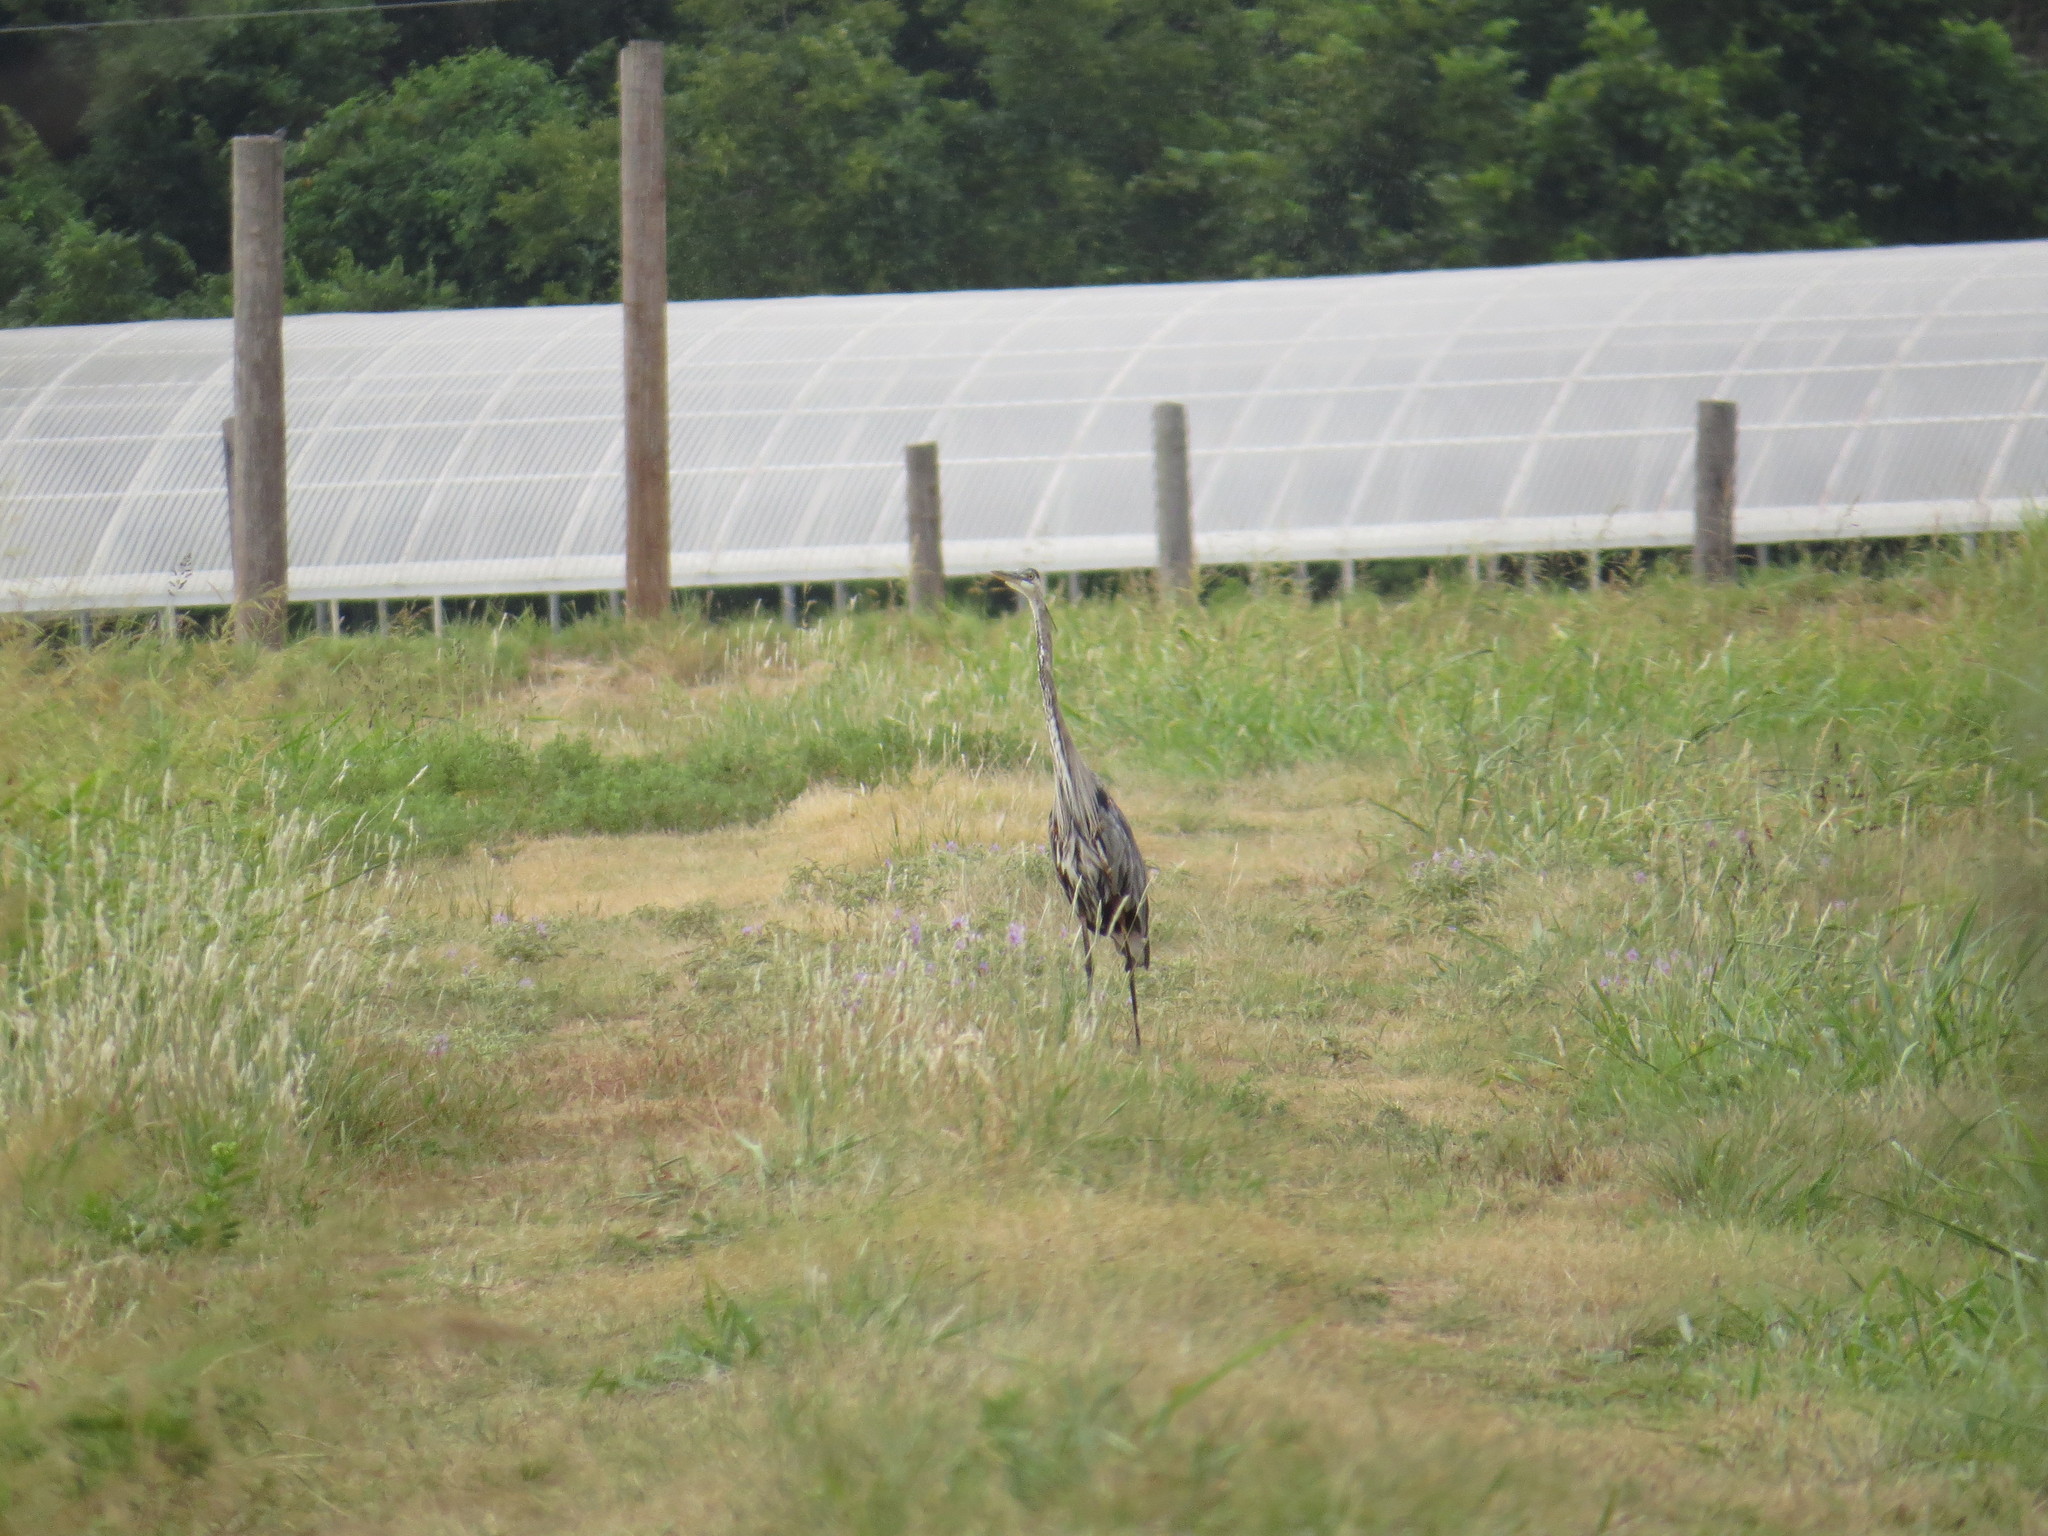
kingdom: Animalia
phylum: Chordata
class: Aves
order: Pelecaniformes
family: Ardeidae
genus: Ardea
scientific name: Ardea herodias
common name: Great blue heron
